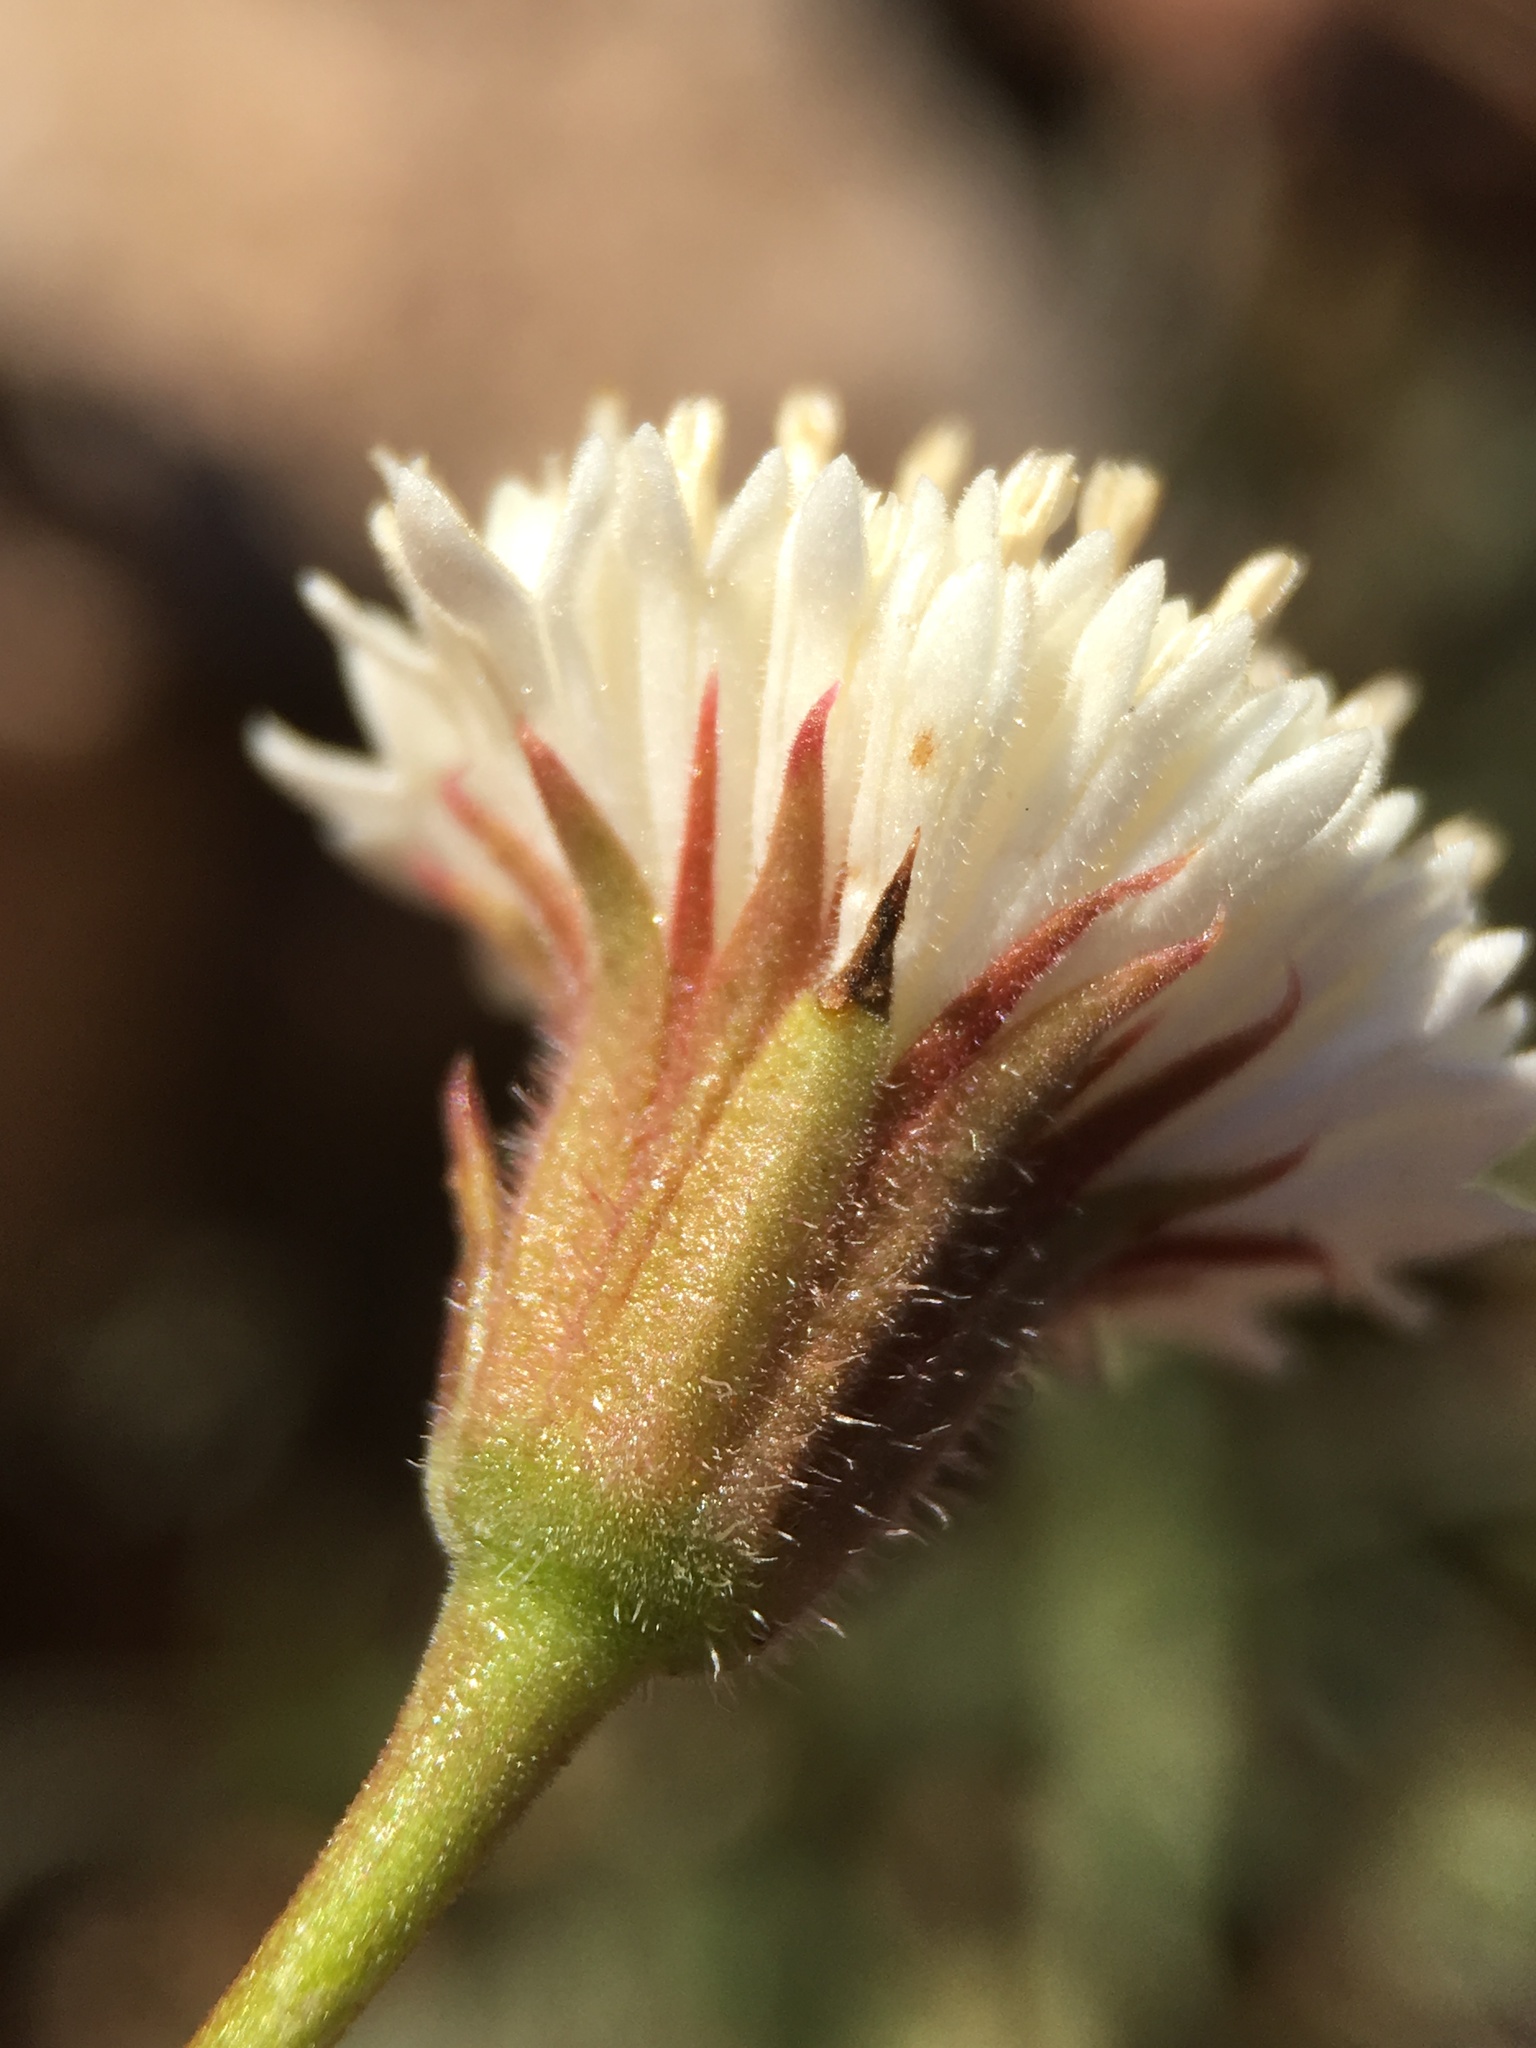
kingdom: Plantae
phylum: Tracheophyta
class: Magnoliopsida
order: Asterales
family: Asteraceae
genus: Chaenactis
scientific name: Chaenactis carphoclinia
